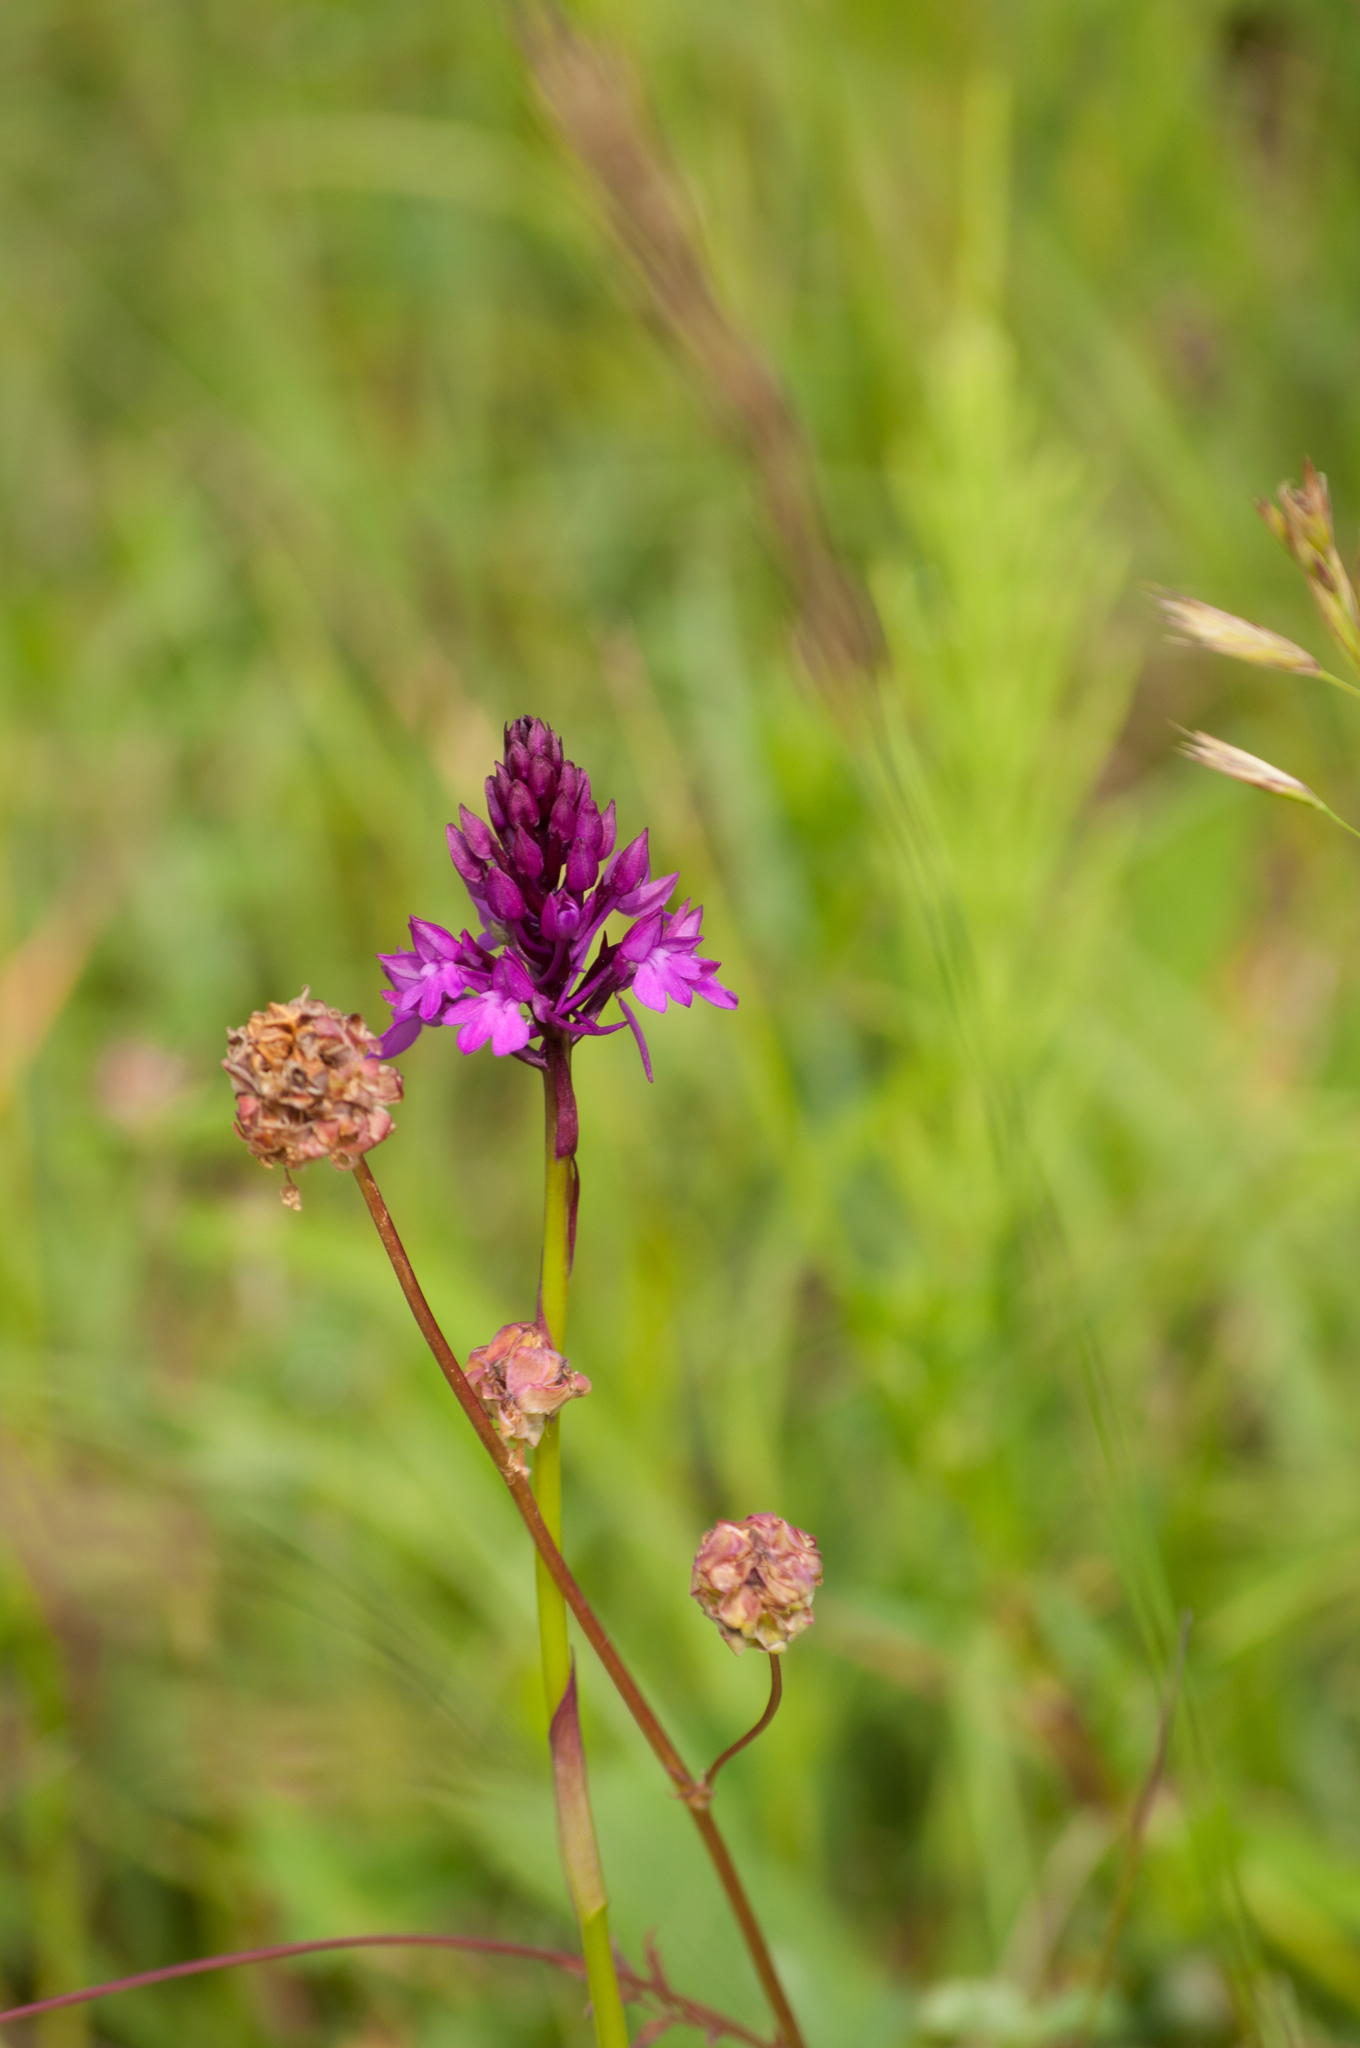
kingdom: Plantae
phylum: Tracheophyta
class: Liliopsida
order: Asparagales
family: Orchidaceae
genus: Anacamptis
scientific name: Anacamptis pyramidalis
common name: Pyramidal orchid
